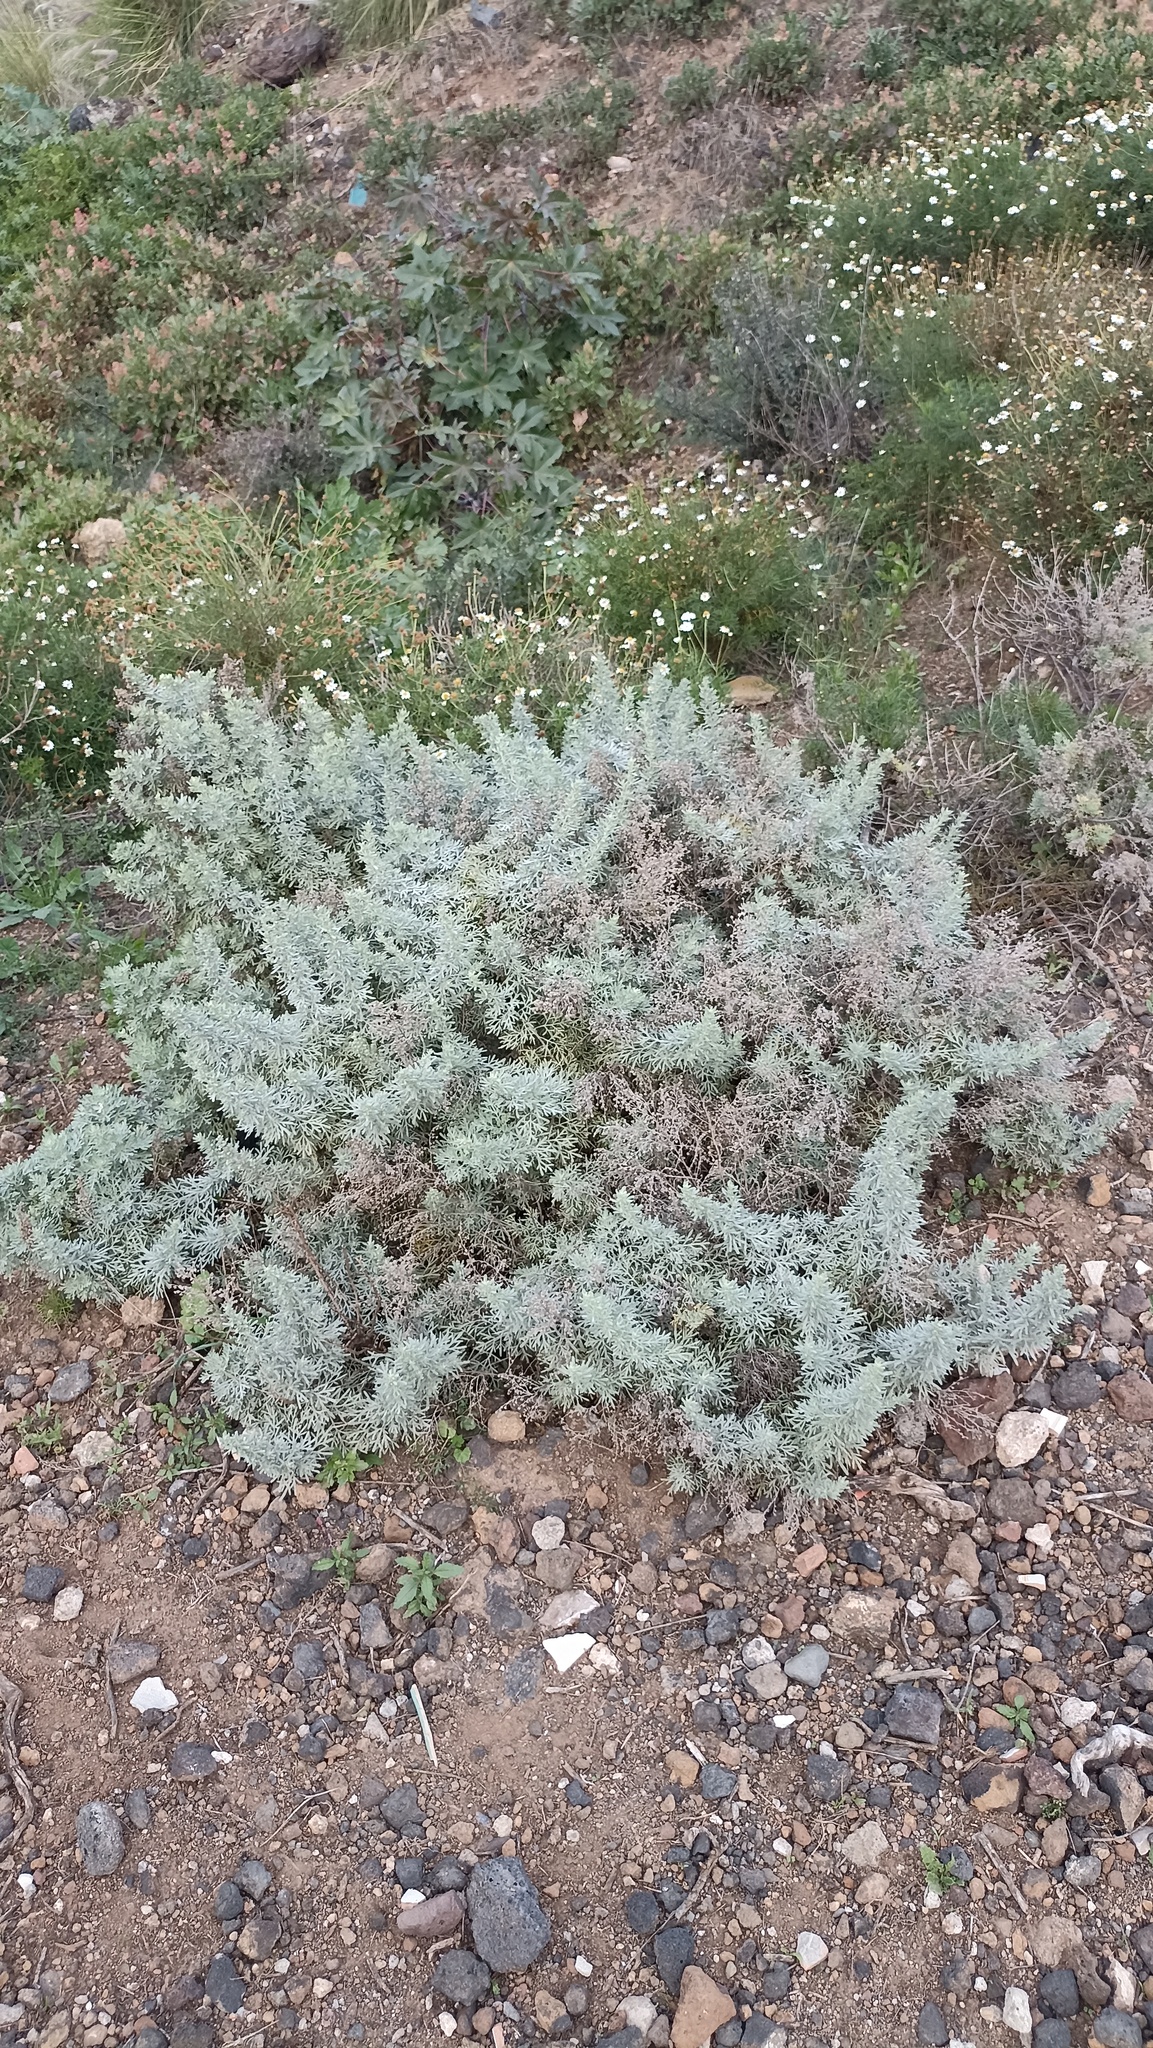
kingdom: Plantae
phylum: Tracheophyta
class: Magnoliopsida
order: Asterales
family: Asteraceae
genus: Artemisia
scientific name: Artemisia thuscula
